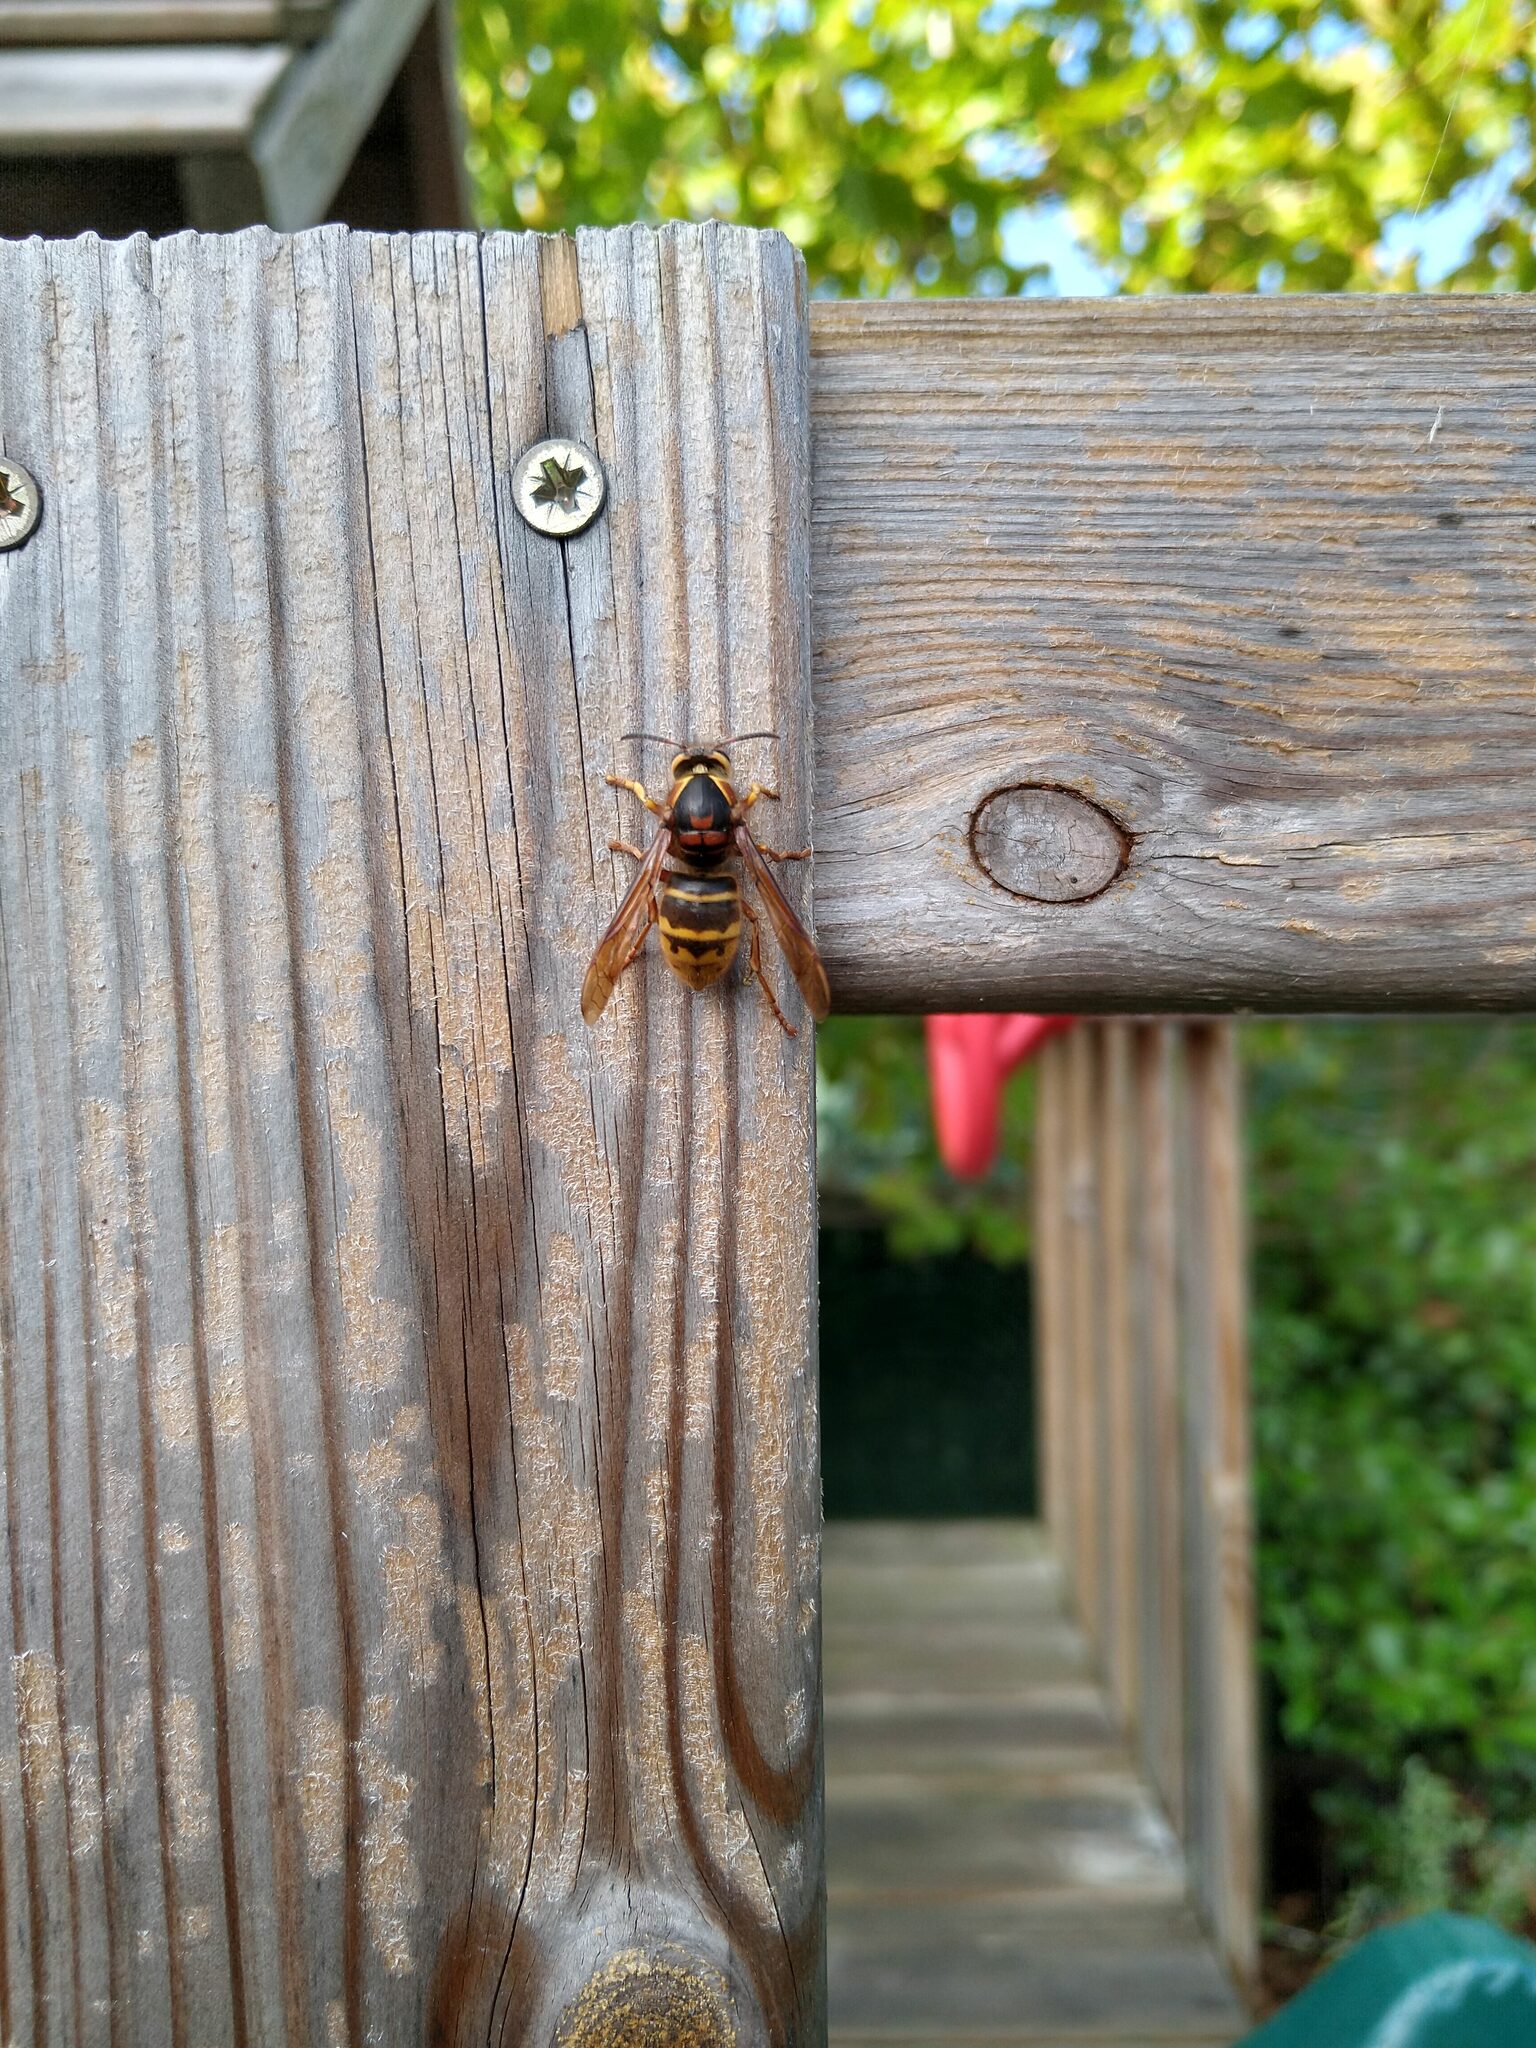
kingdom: Animalia
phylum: Arthropoda
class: Insecta
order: Hymenoptera
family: Vespidae
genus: Dolichovespula
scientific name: Dolichovespula media
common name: Median wasp
